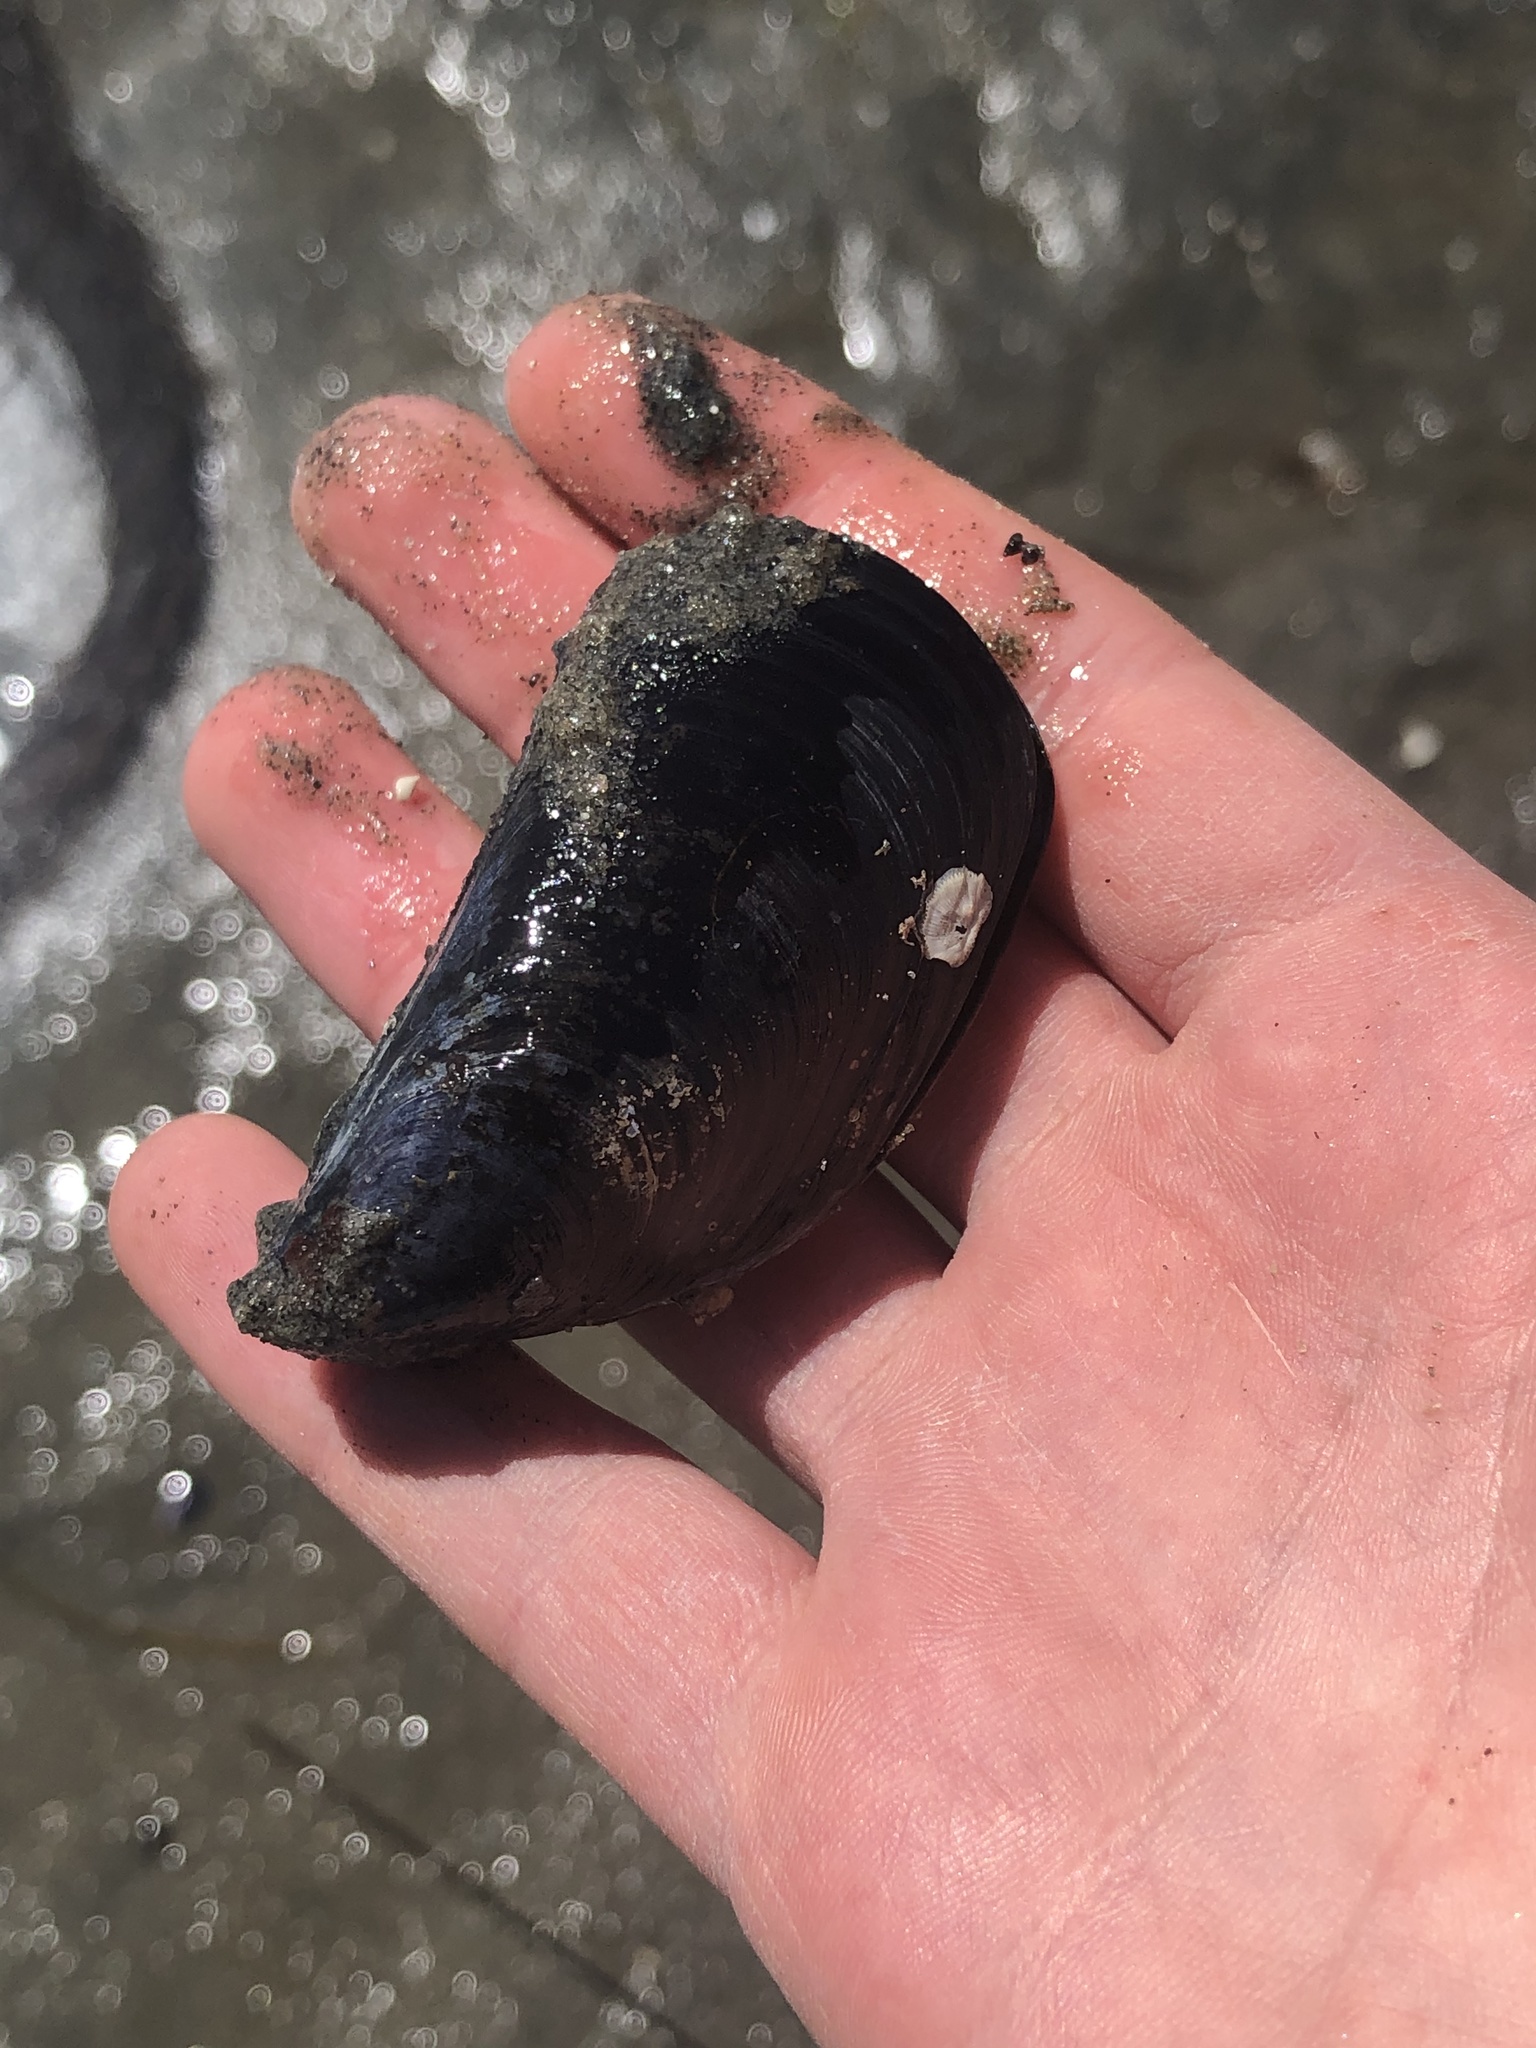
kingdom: Animalia
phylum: Mollusca
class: Bivalvia
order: Mytilida
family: Mytilidae
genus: Mytilus
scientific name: Mytilus galloprovincialis
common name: Mediterranean mussel
